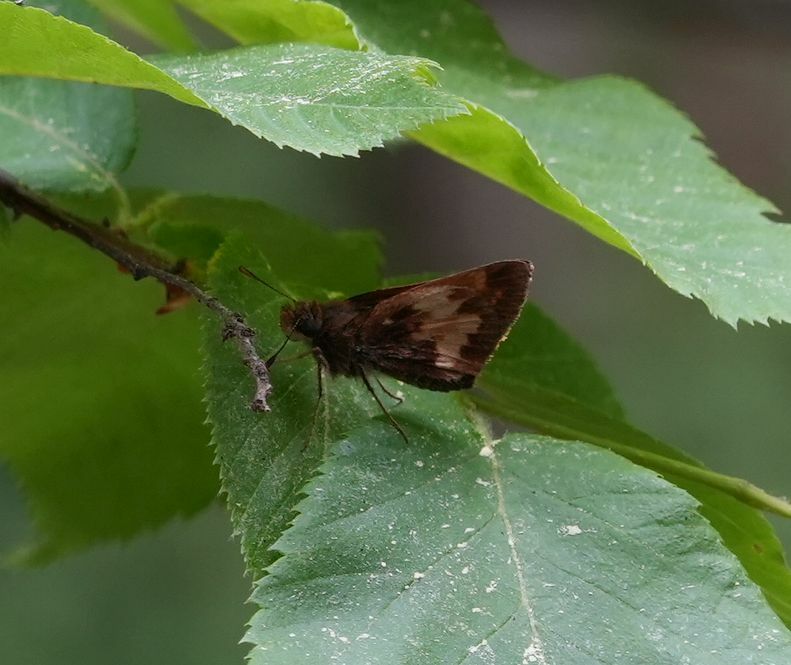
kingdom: Animalia
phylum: Arthropoda
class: Insecta
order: Lepidoptera
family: Hesperiidae
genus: Lon
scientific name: Lon hobomok
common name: Hobomok skipper
